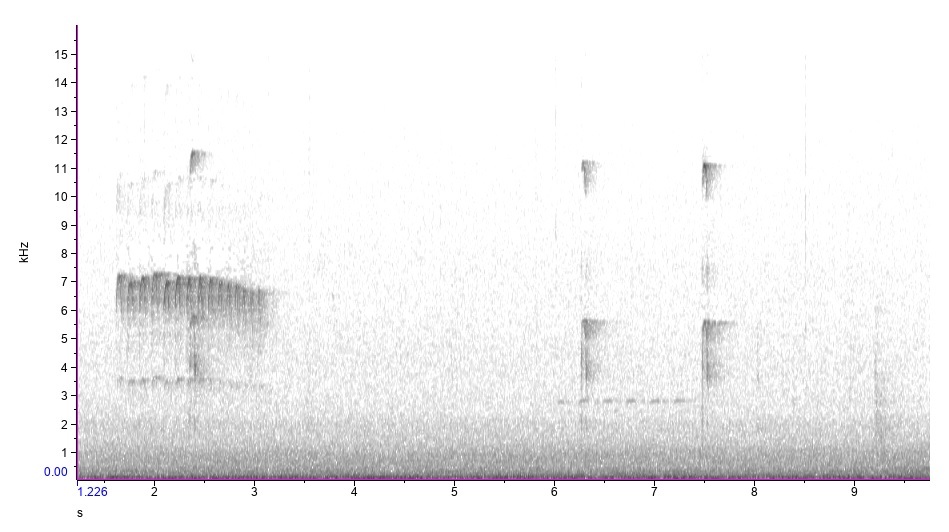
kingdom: Animalia
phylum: Chordata
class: Aves
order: Piciformes
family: Picidae
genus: Dryobates
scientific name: Dryobates pubescens
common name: Downy woodpecker
